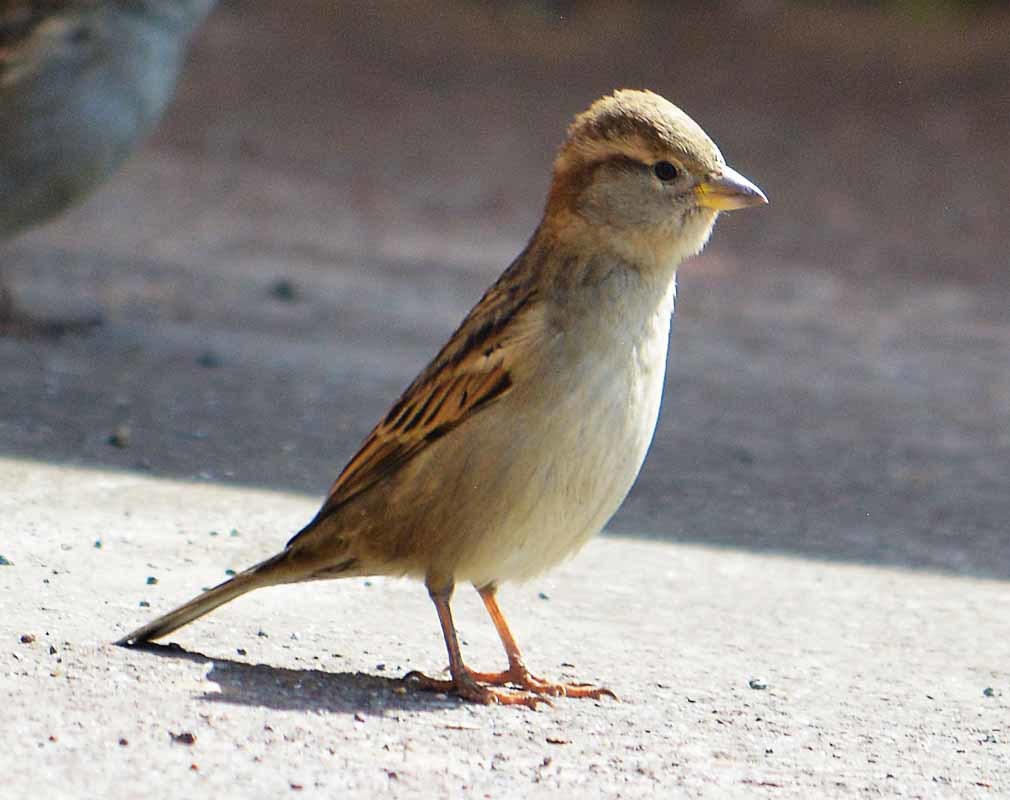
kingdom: Animalia
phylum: Chordata
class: Aves
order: Passeriformes
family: Passeridae
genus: Passer
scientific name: Passer domesticus
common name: House sparrow
